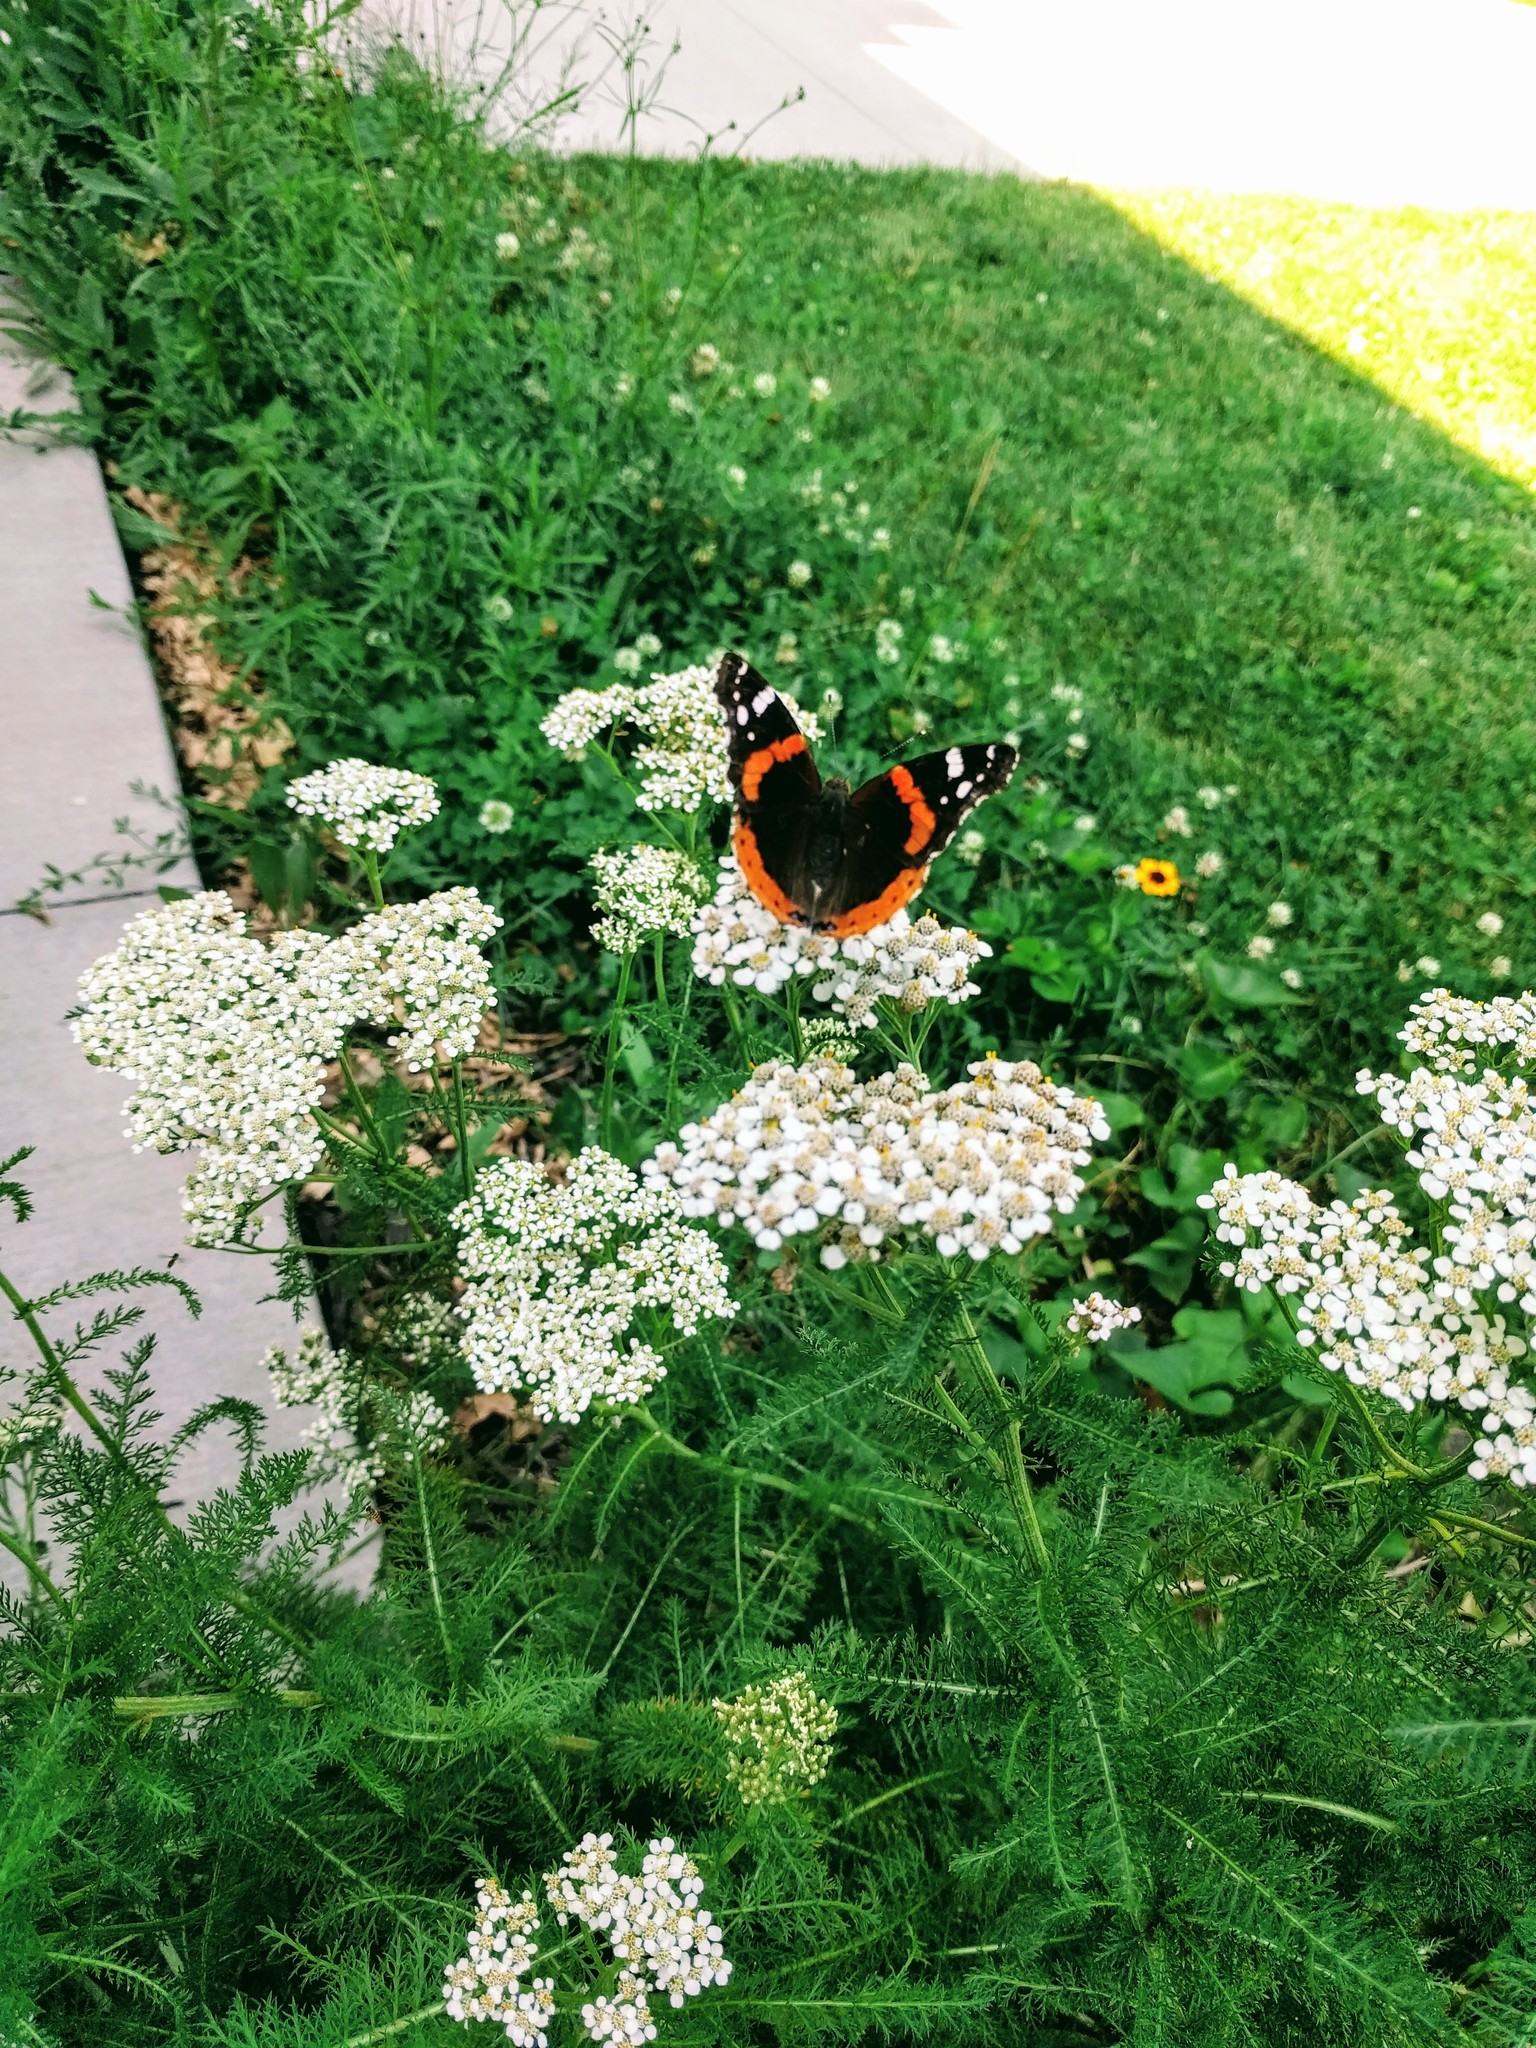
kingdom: Animalia
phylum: Arthropoda
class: Insecta
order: Lepidoptera
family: Nymphalidae
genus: Vanessa
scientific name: Vanessa atalanta
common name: Red admiral
